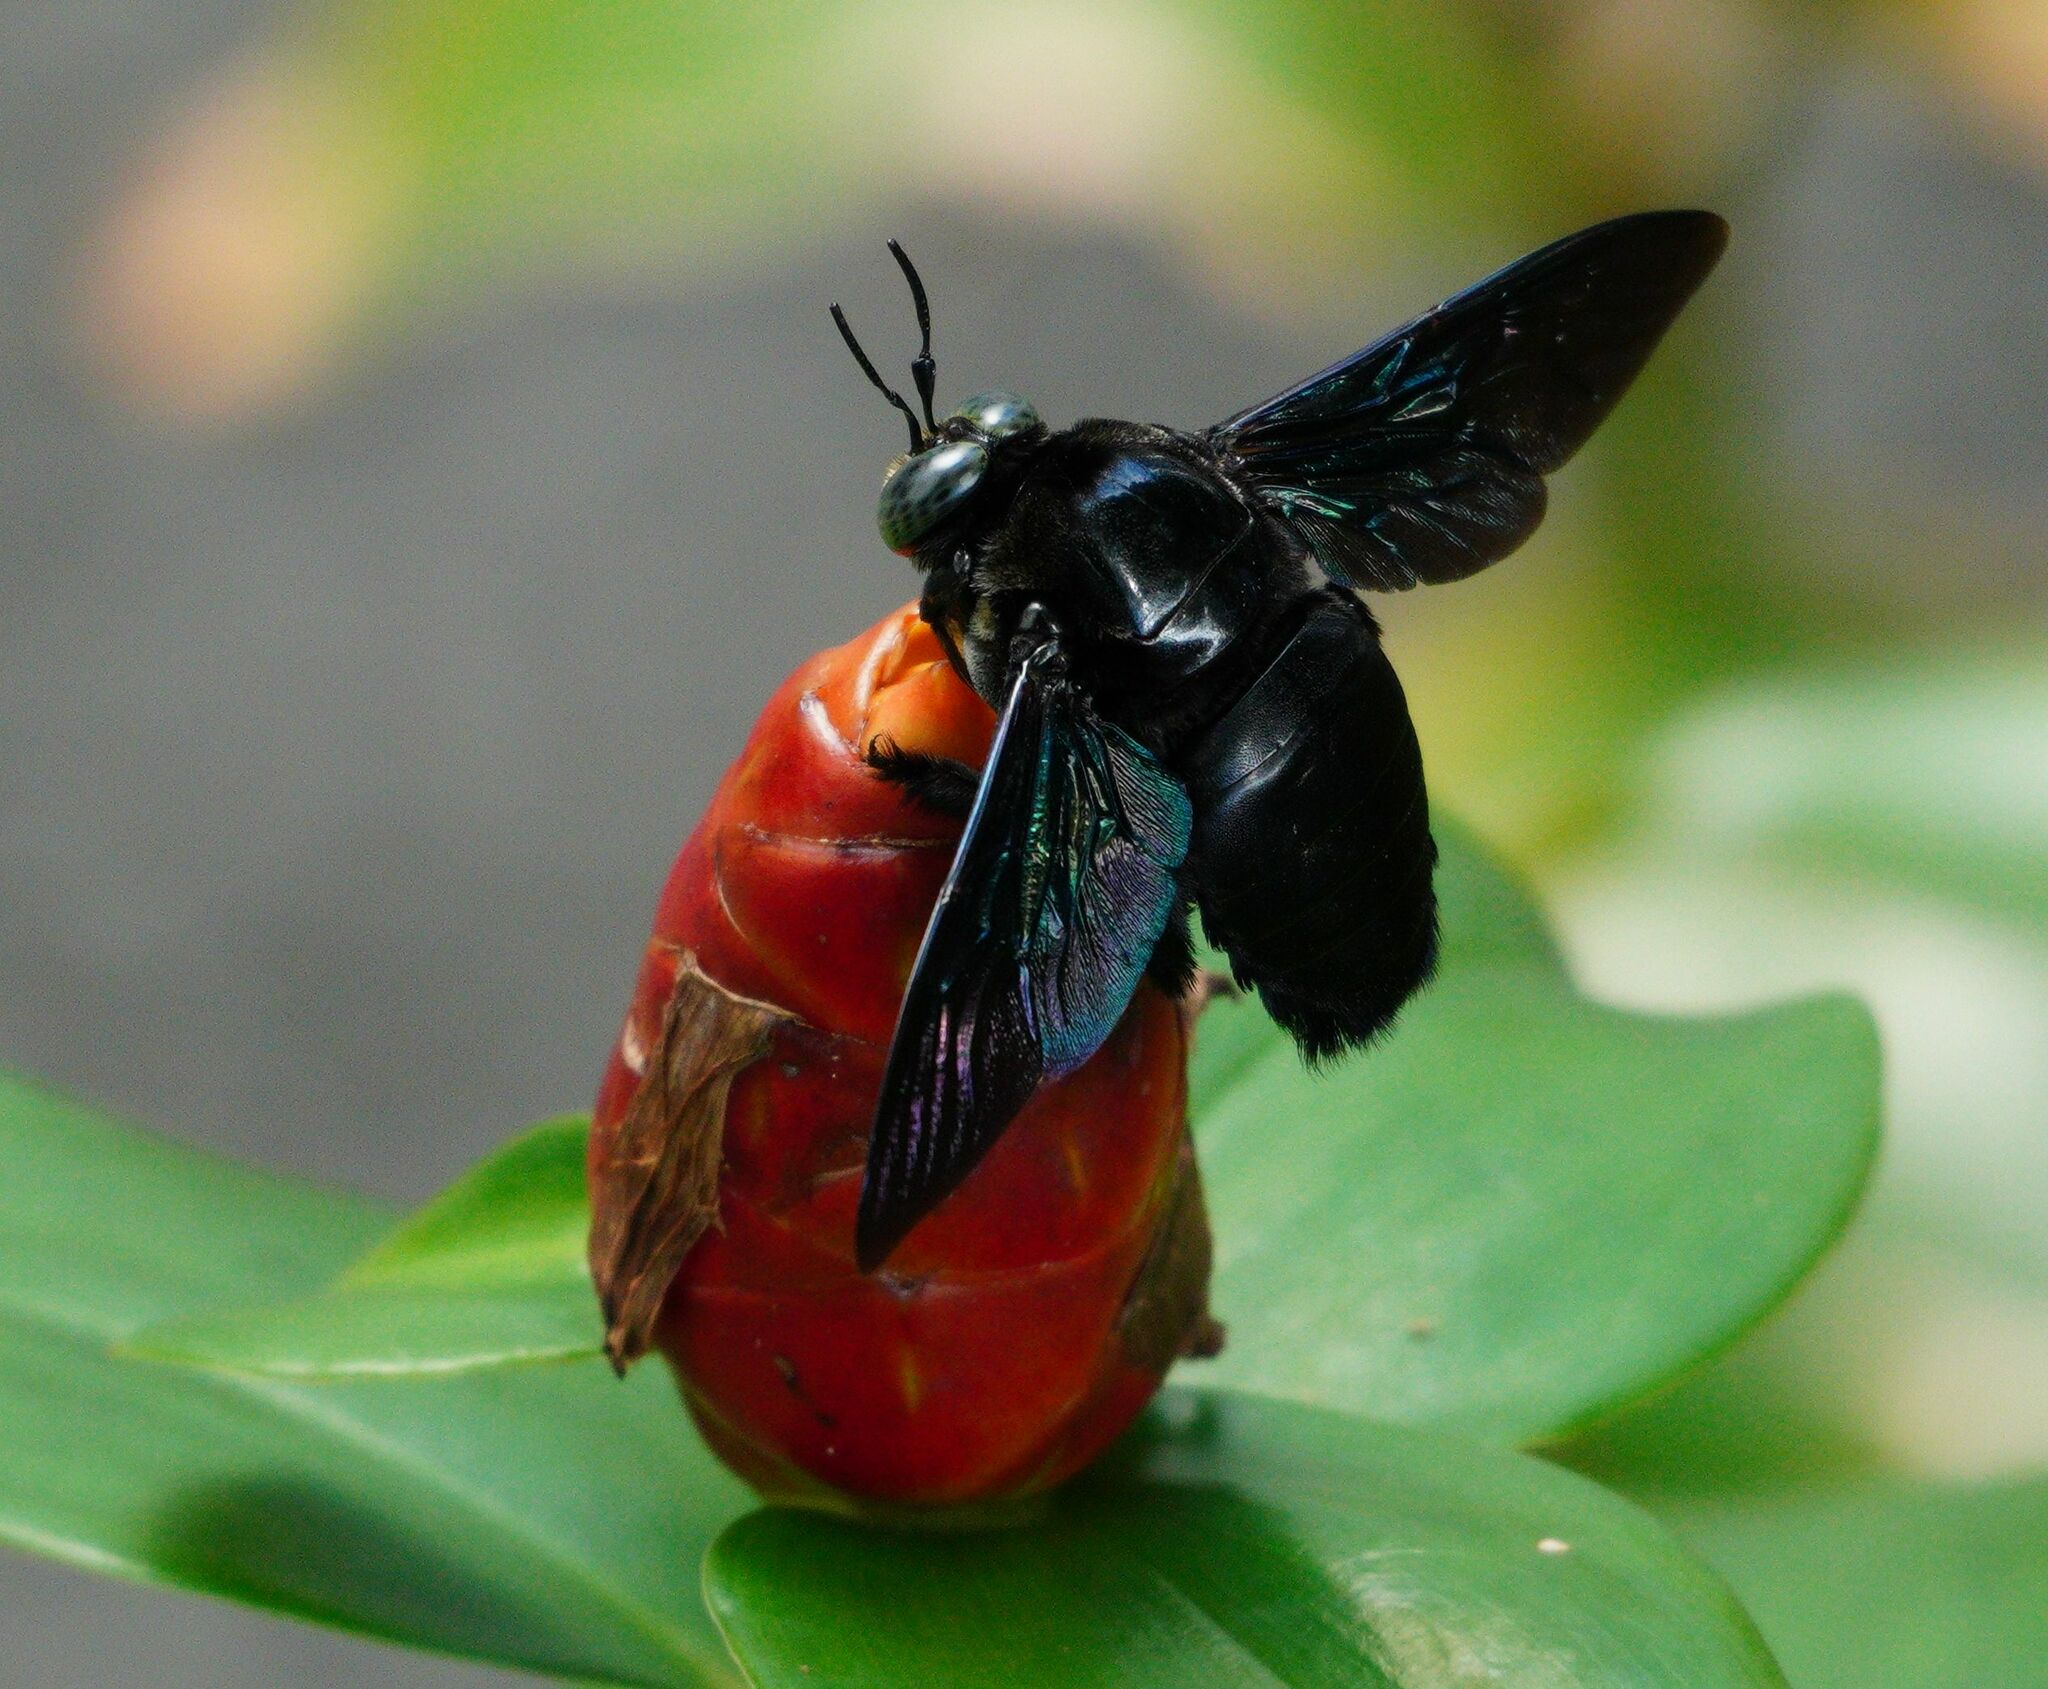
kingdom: Animalia
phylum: Arthropoda
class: Insecta
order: Hymenoptera
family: Apidae
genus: Xylocopa
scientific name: Xylocopa latipes
